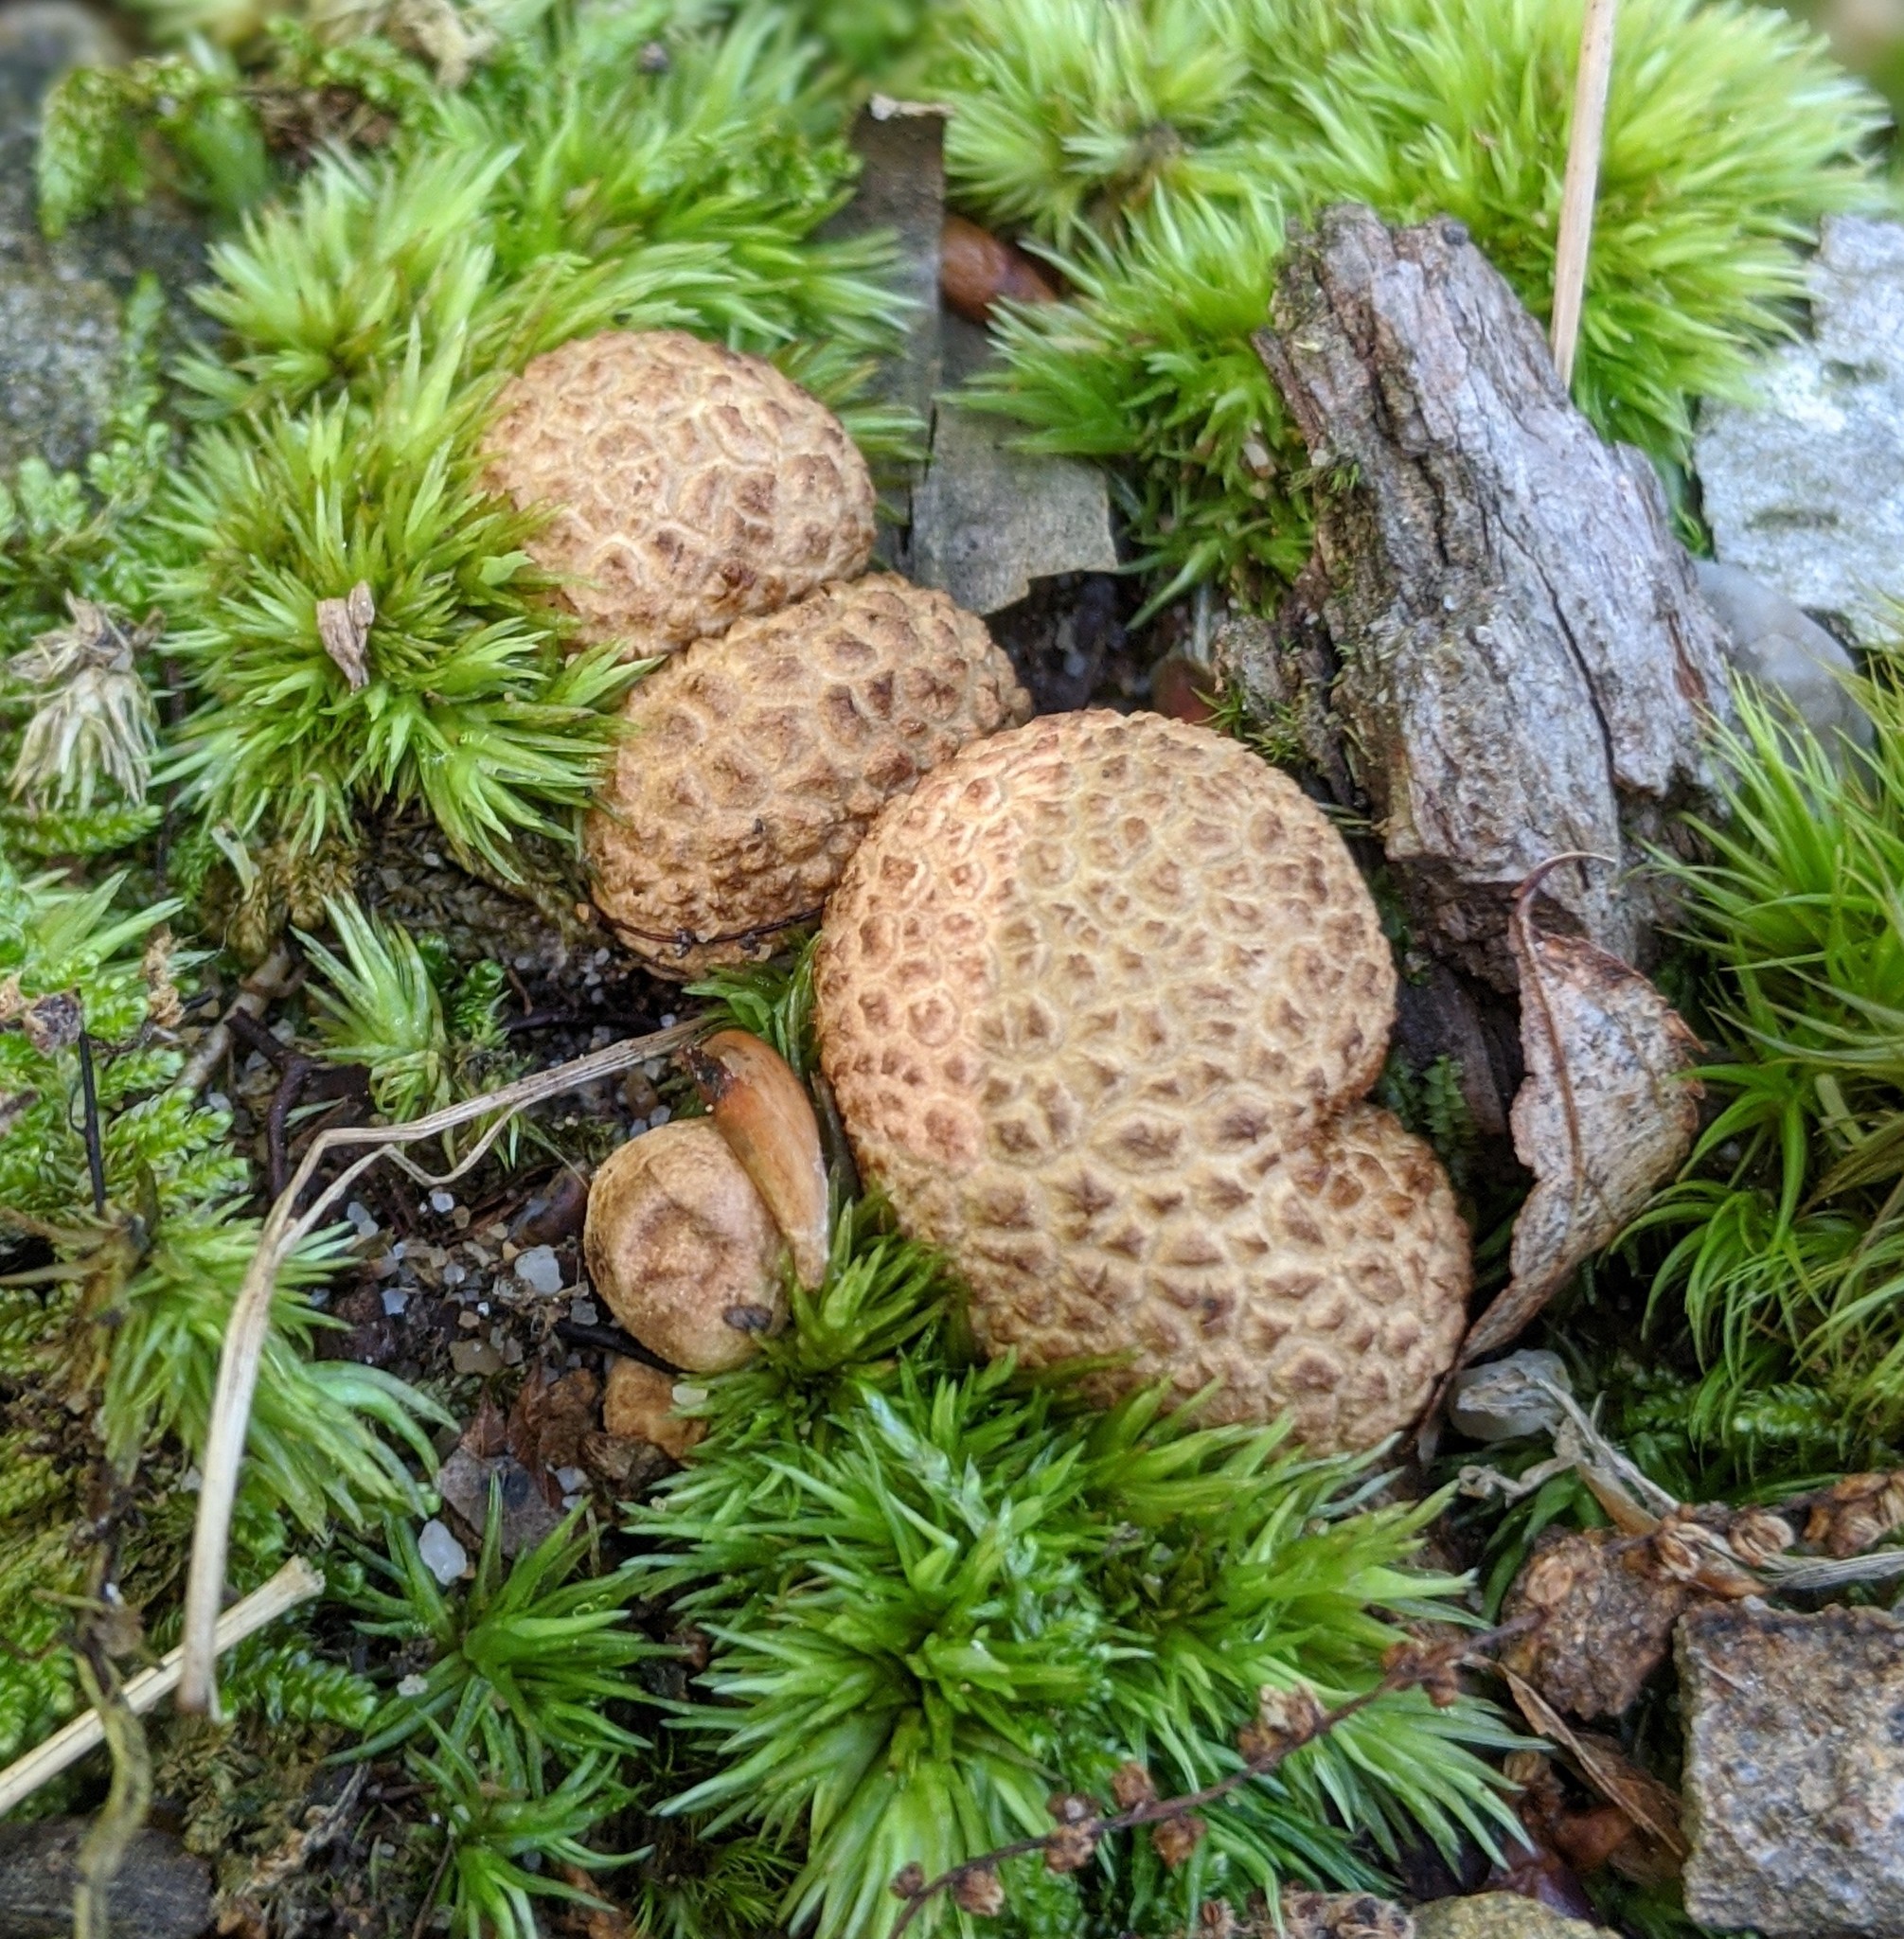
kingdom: Fungi
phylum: Basidiomycota
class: Agaricomycetes
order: Boletales
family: Sclerodermataceae
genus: Scleroderma
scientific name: Scleroderma citrinum
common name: Common earthball
